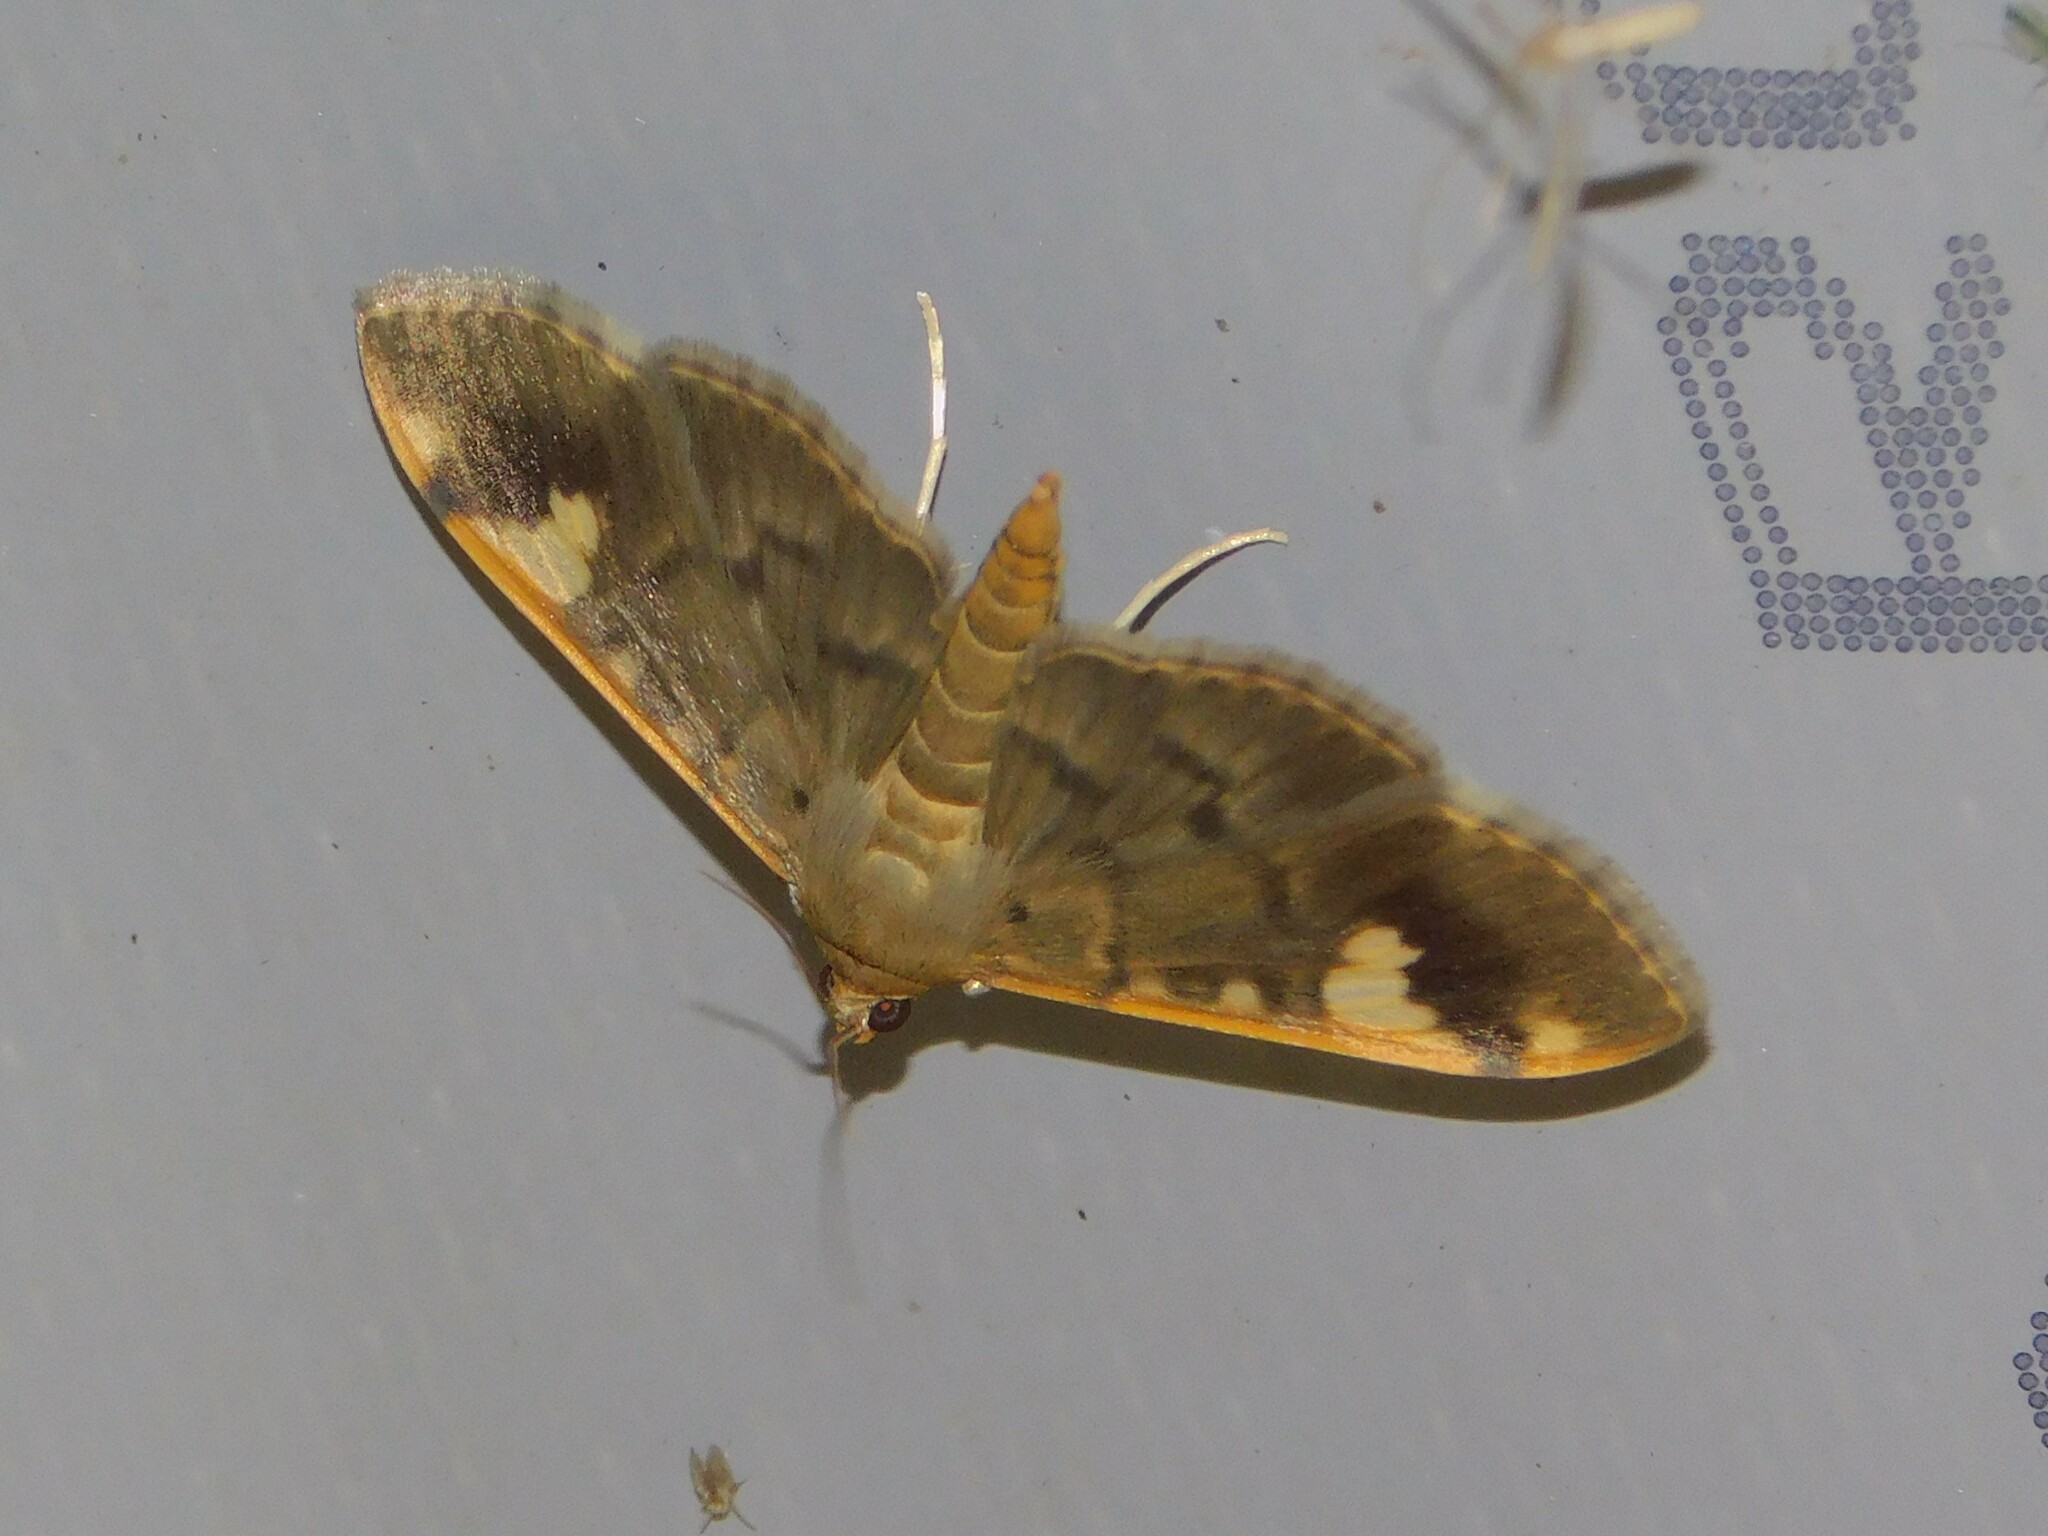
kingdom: Animalia
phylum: Arthropoda
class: Insecta
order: Lepidoptera
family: Crambidae
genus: Prophantis
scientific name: Prophantis longicornalis
